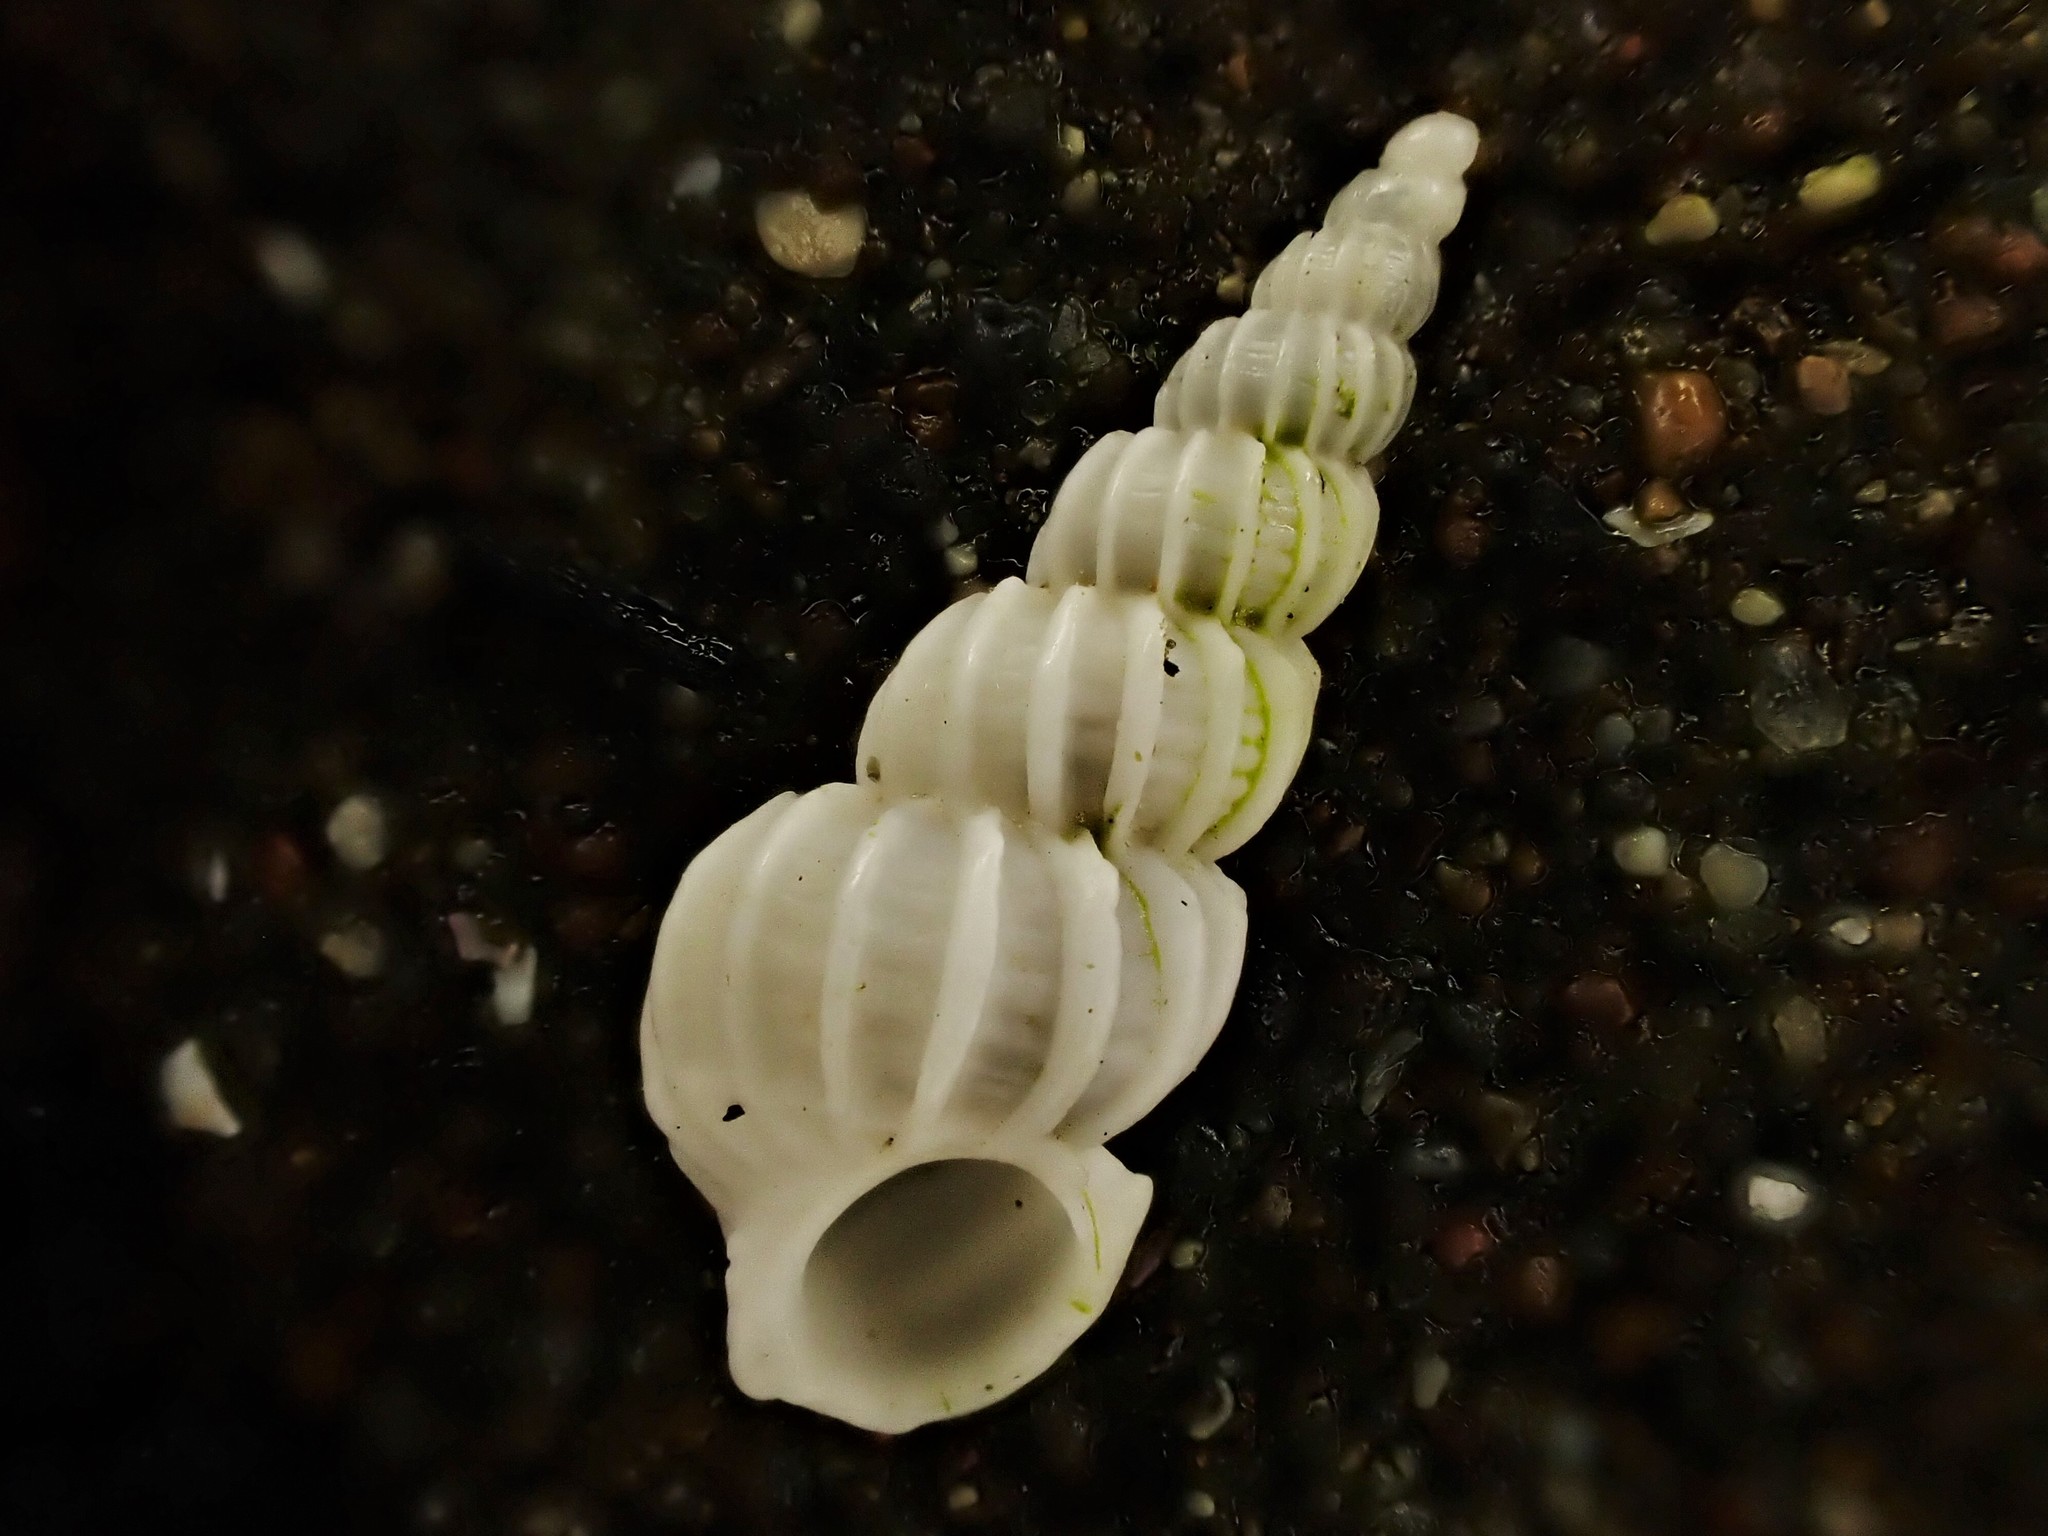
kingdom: Animalia
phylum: Mollusca
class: Gastropoda
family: Epitoniidae
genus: Cirsotrema
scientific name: Cirsotrema zelebori
